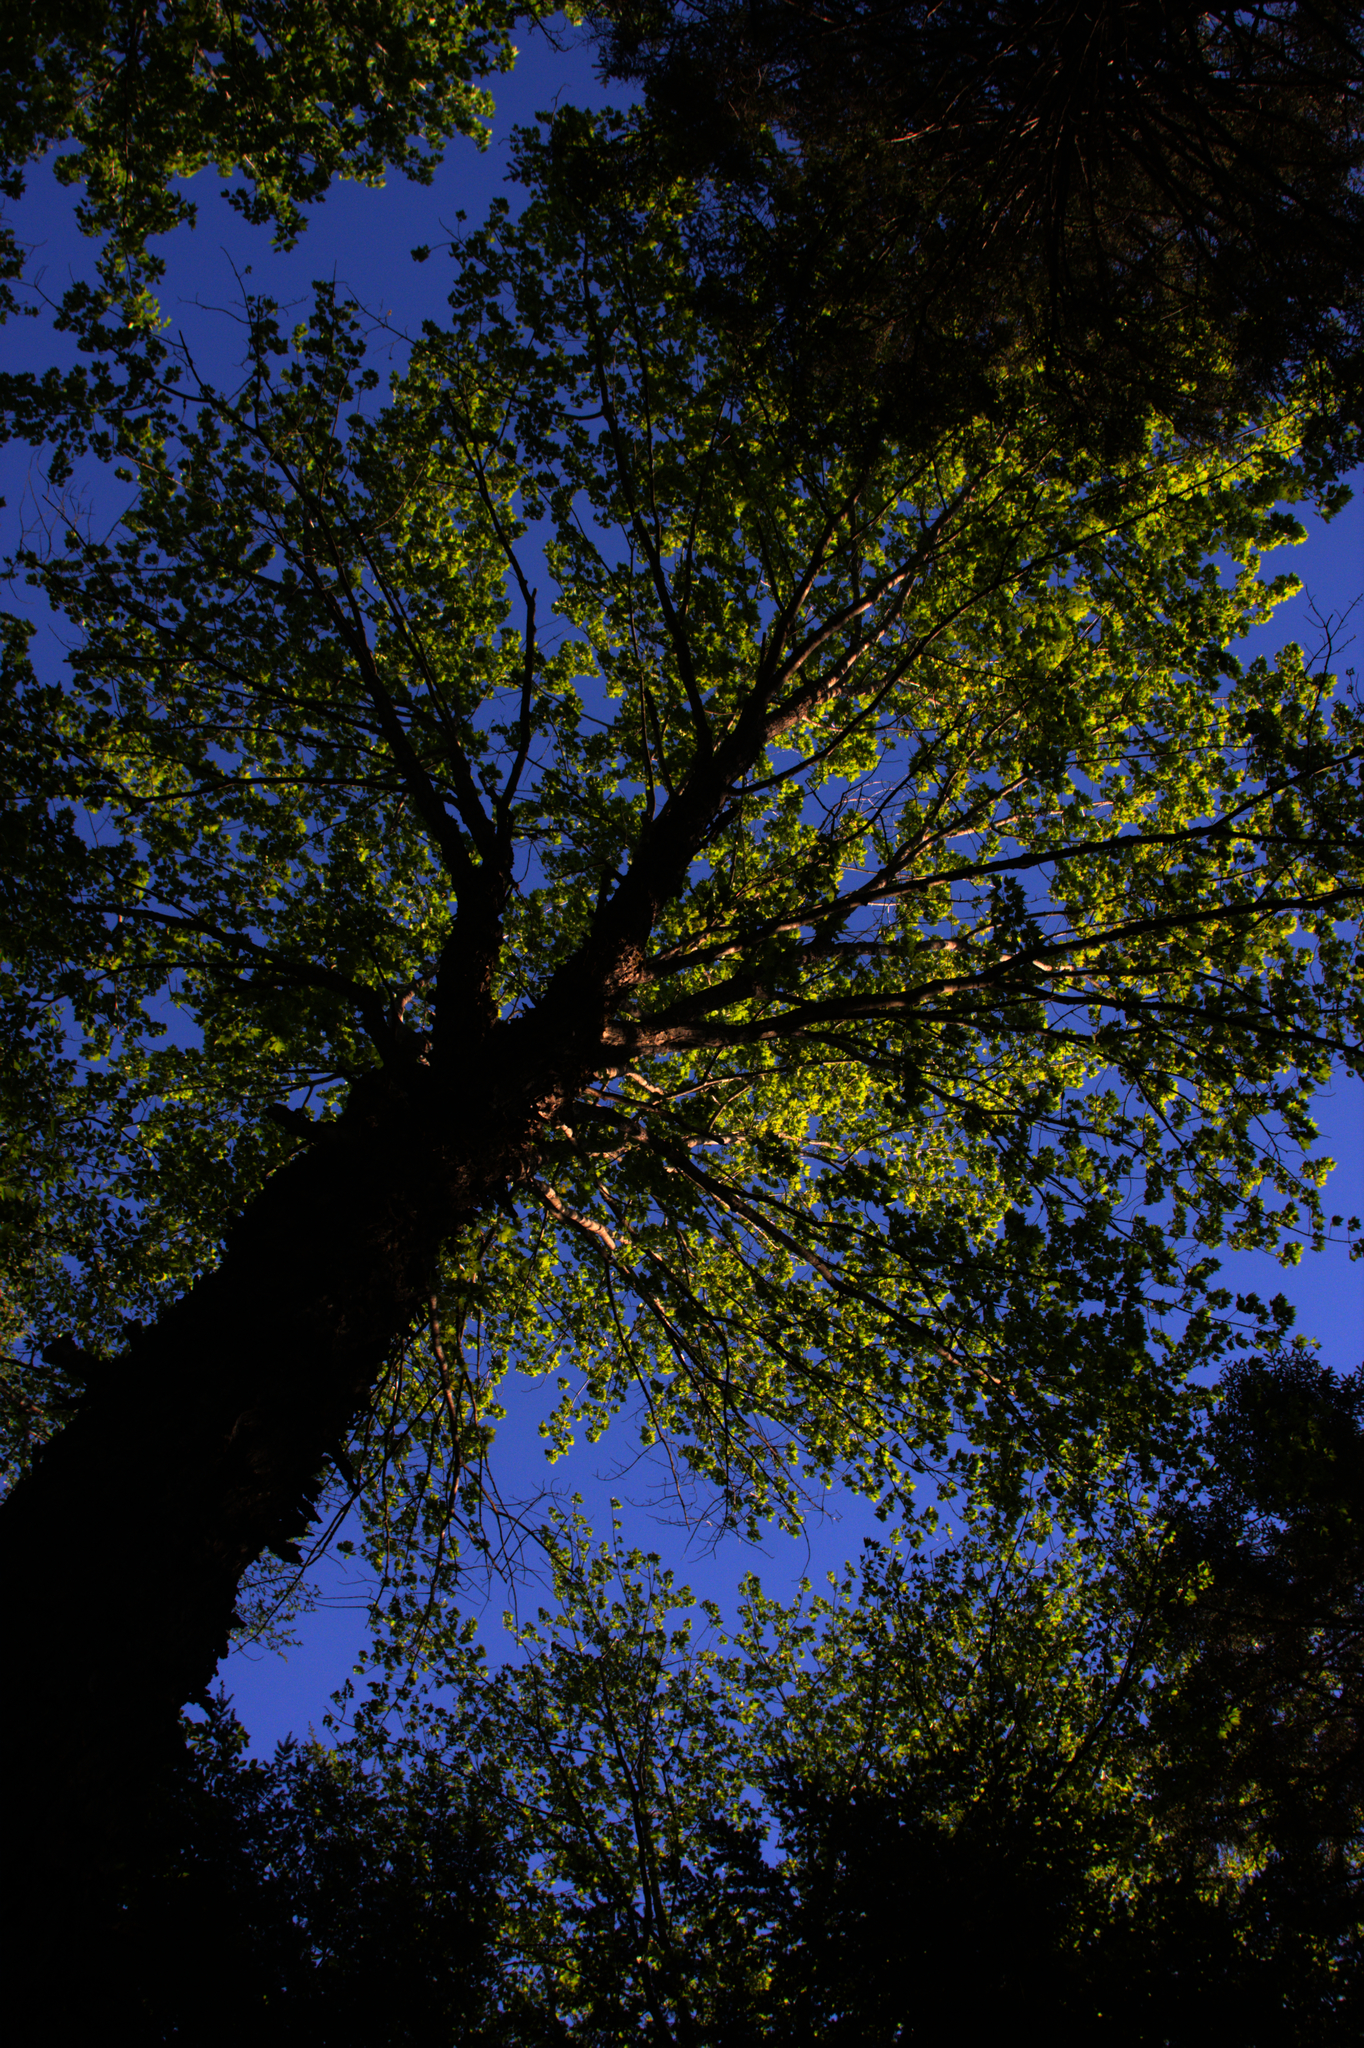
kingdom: Plantae
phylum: Tracheophyta
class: Magnoliopsida
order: Sapindales
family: Sapindaceae
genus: Acer
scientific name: Acer rubrum
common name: Red maple
